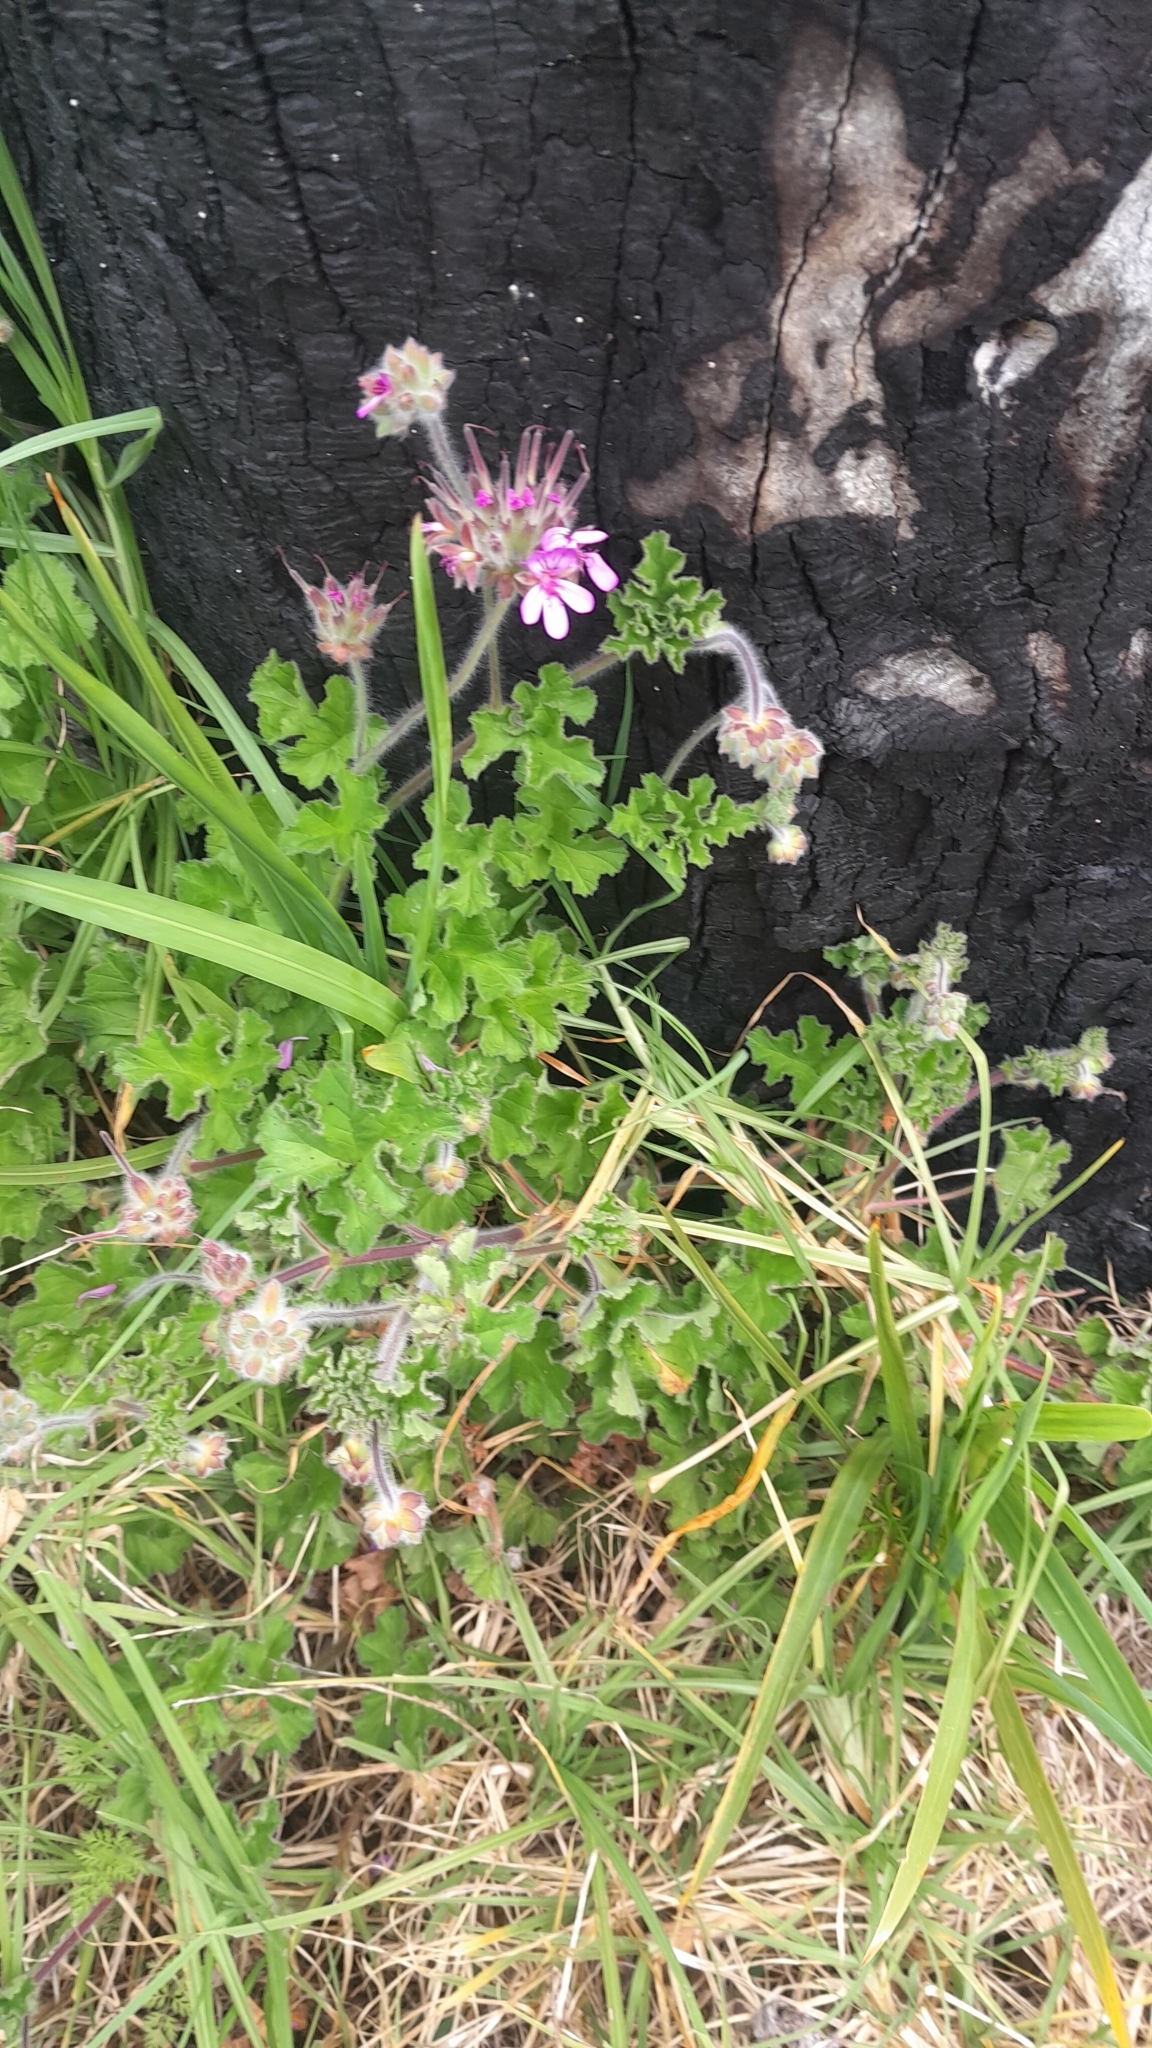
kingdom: Plantae
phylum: Tracheophyta
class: Magnoliopsida
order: Geraniales
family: Geraniaceae
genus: Pelargonium
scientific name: Pelargonium capitatum
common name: Rose scented geranium
